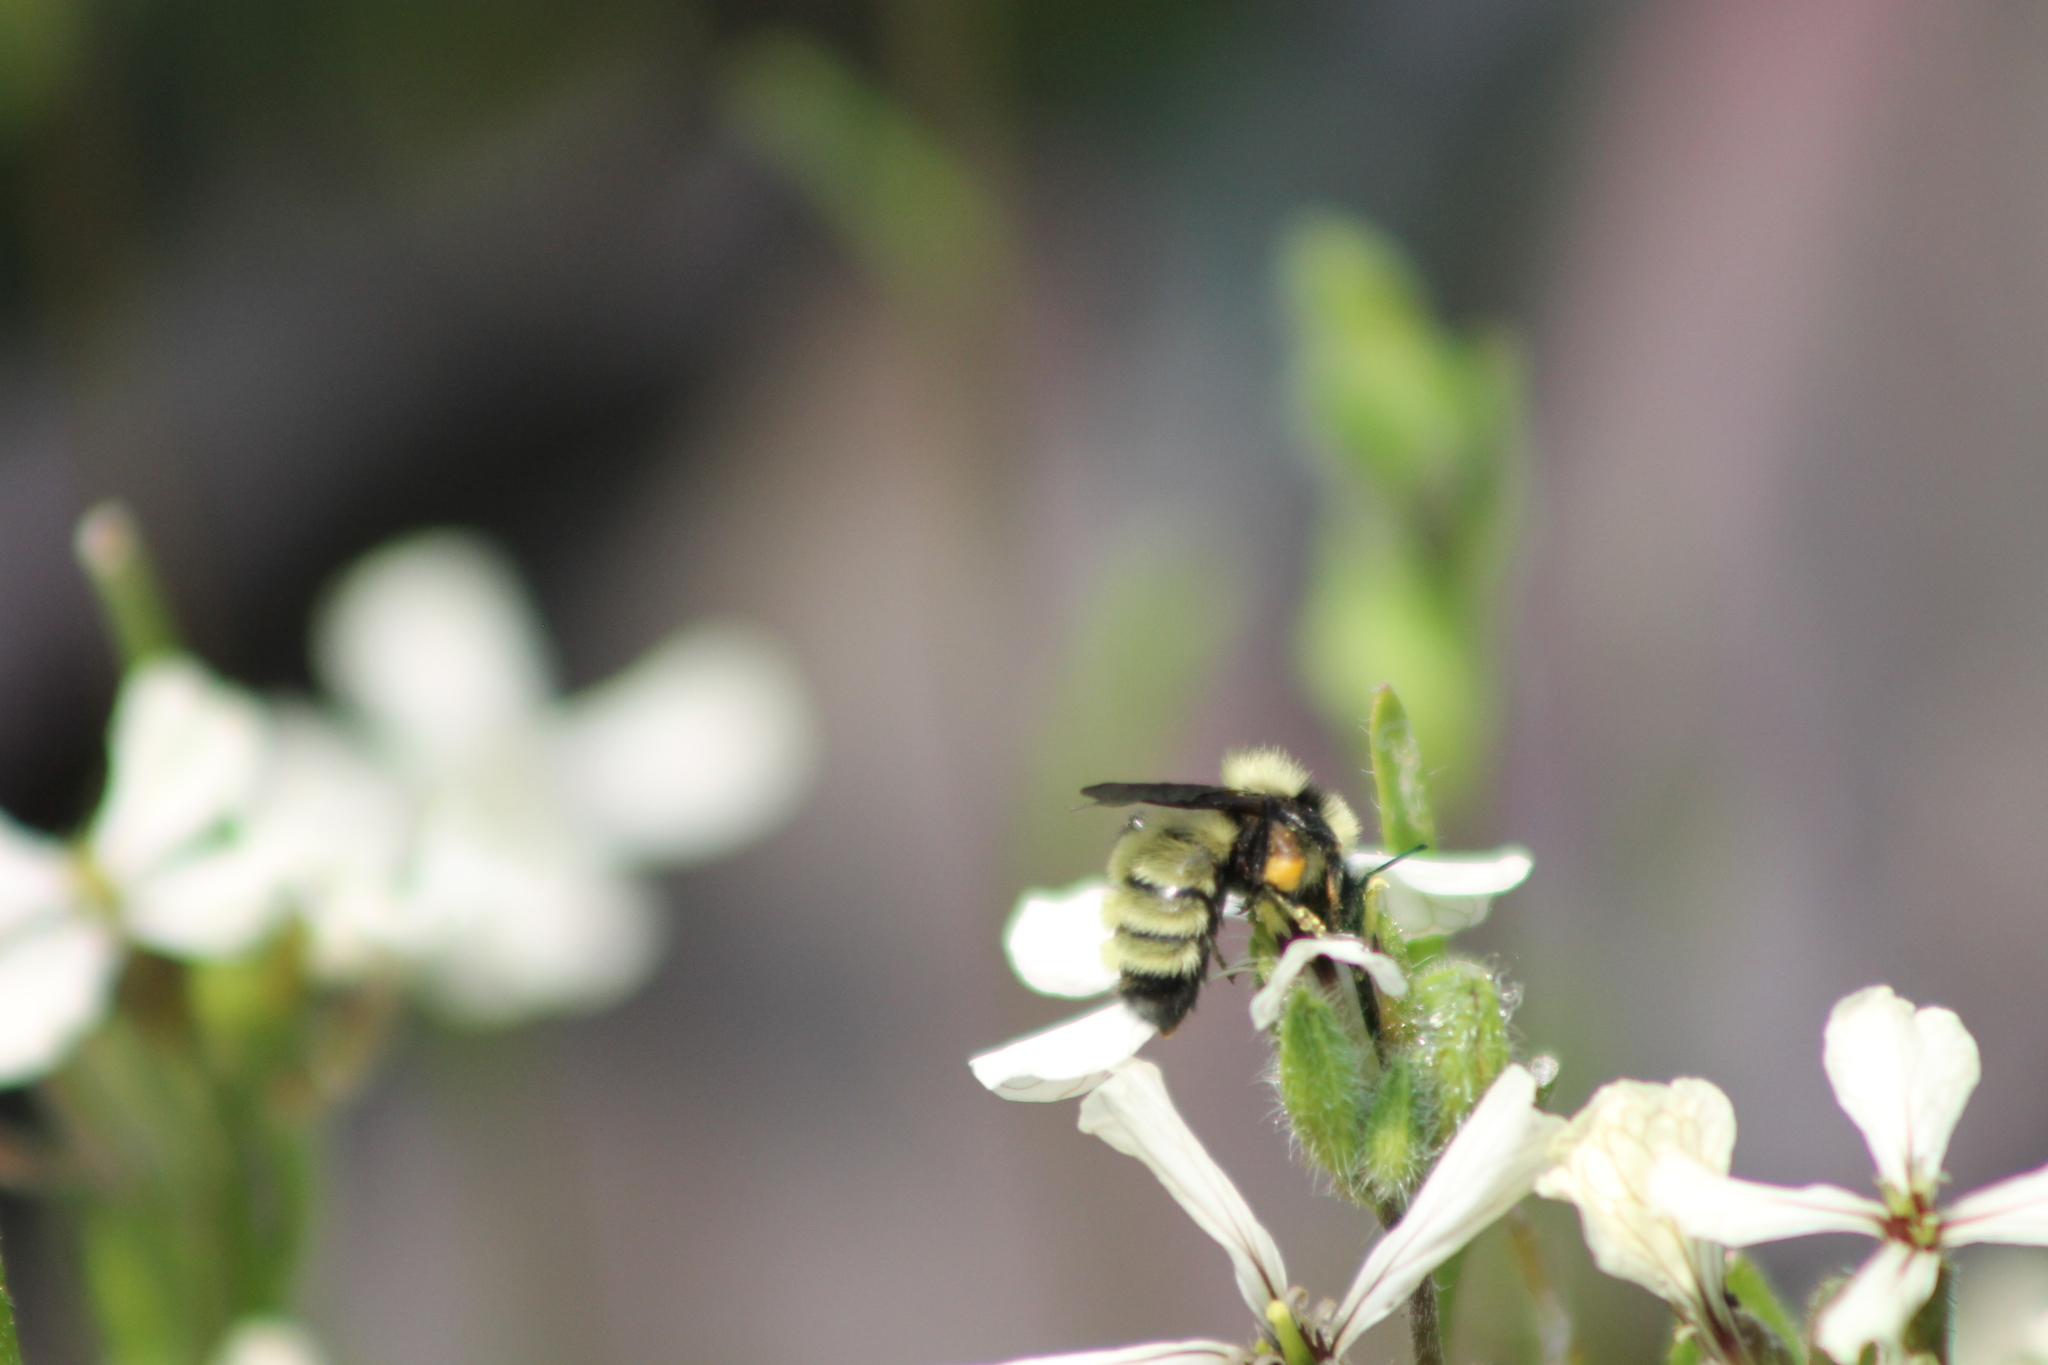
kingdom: Animalia
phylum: Arthropoda
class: Insecta
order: Hymenoptera
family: Apidae
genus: Bombus
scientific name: Bombus fervidus
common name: Yellow bumble bee
